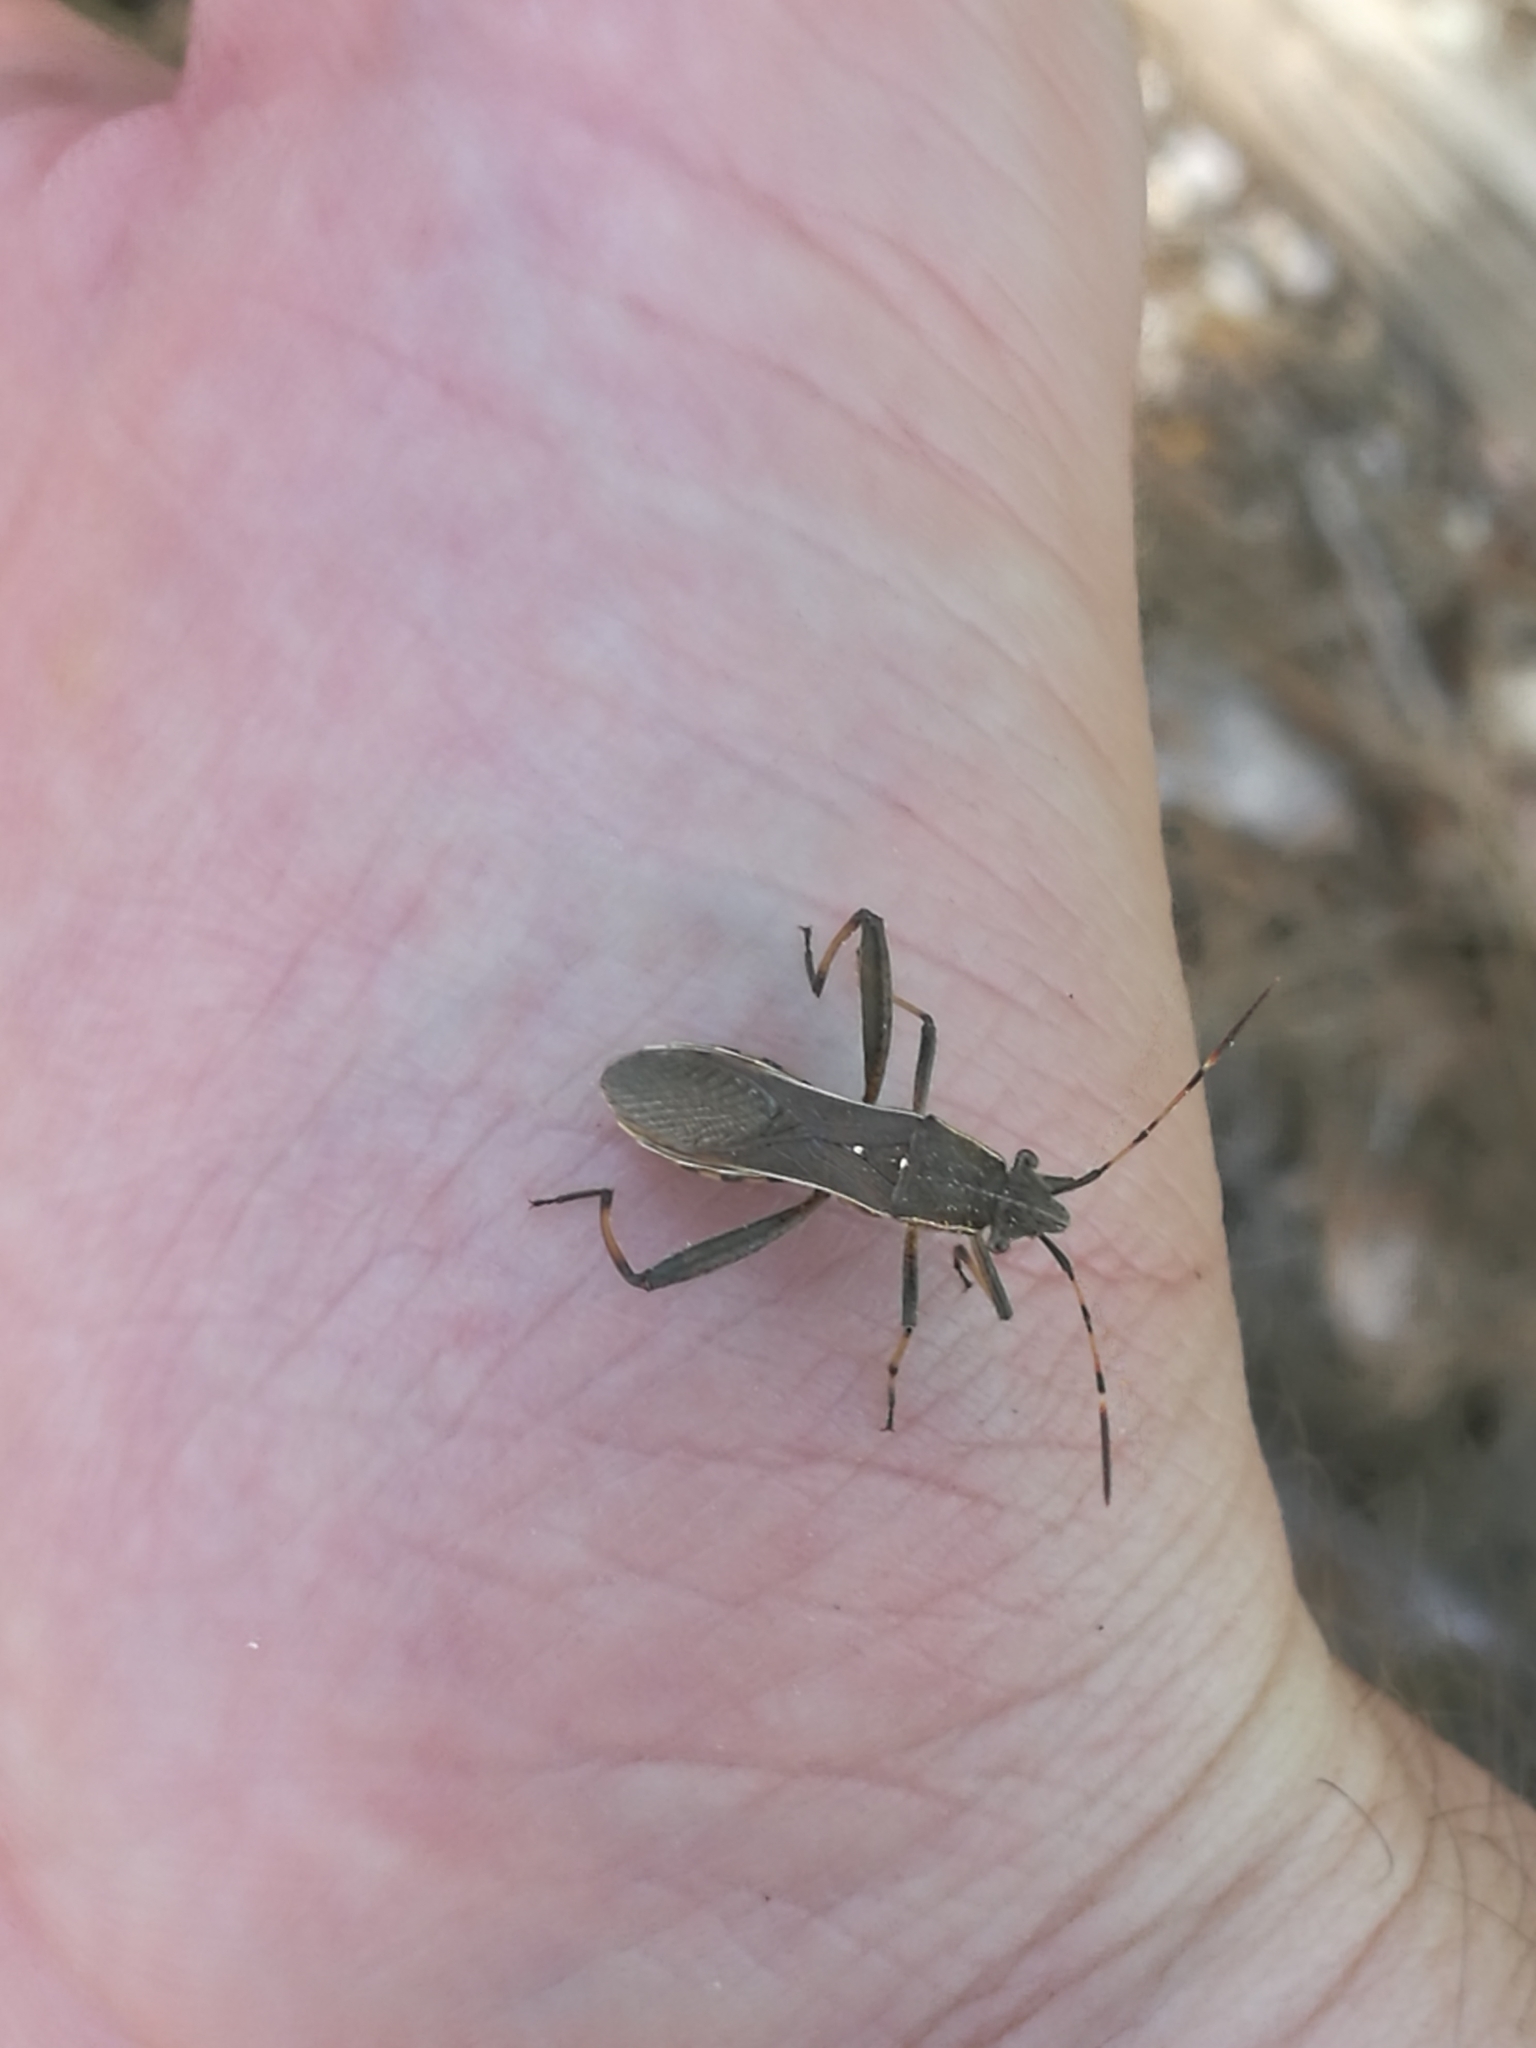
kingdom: Animalia
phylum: Arthropoda
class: Insecta
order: Hemiptera
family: Alydidae
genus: Camptopus
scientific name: Camptopus lateralis
